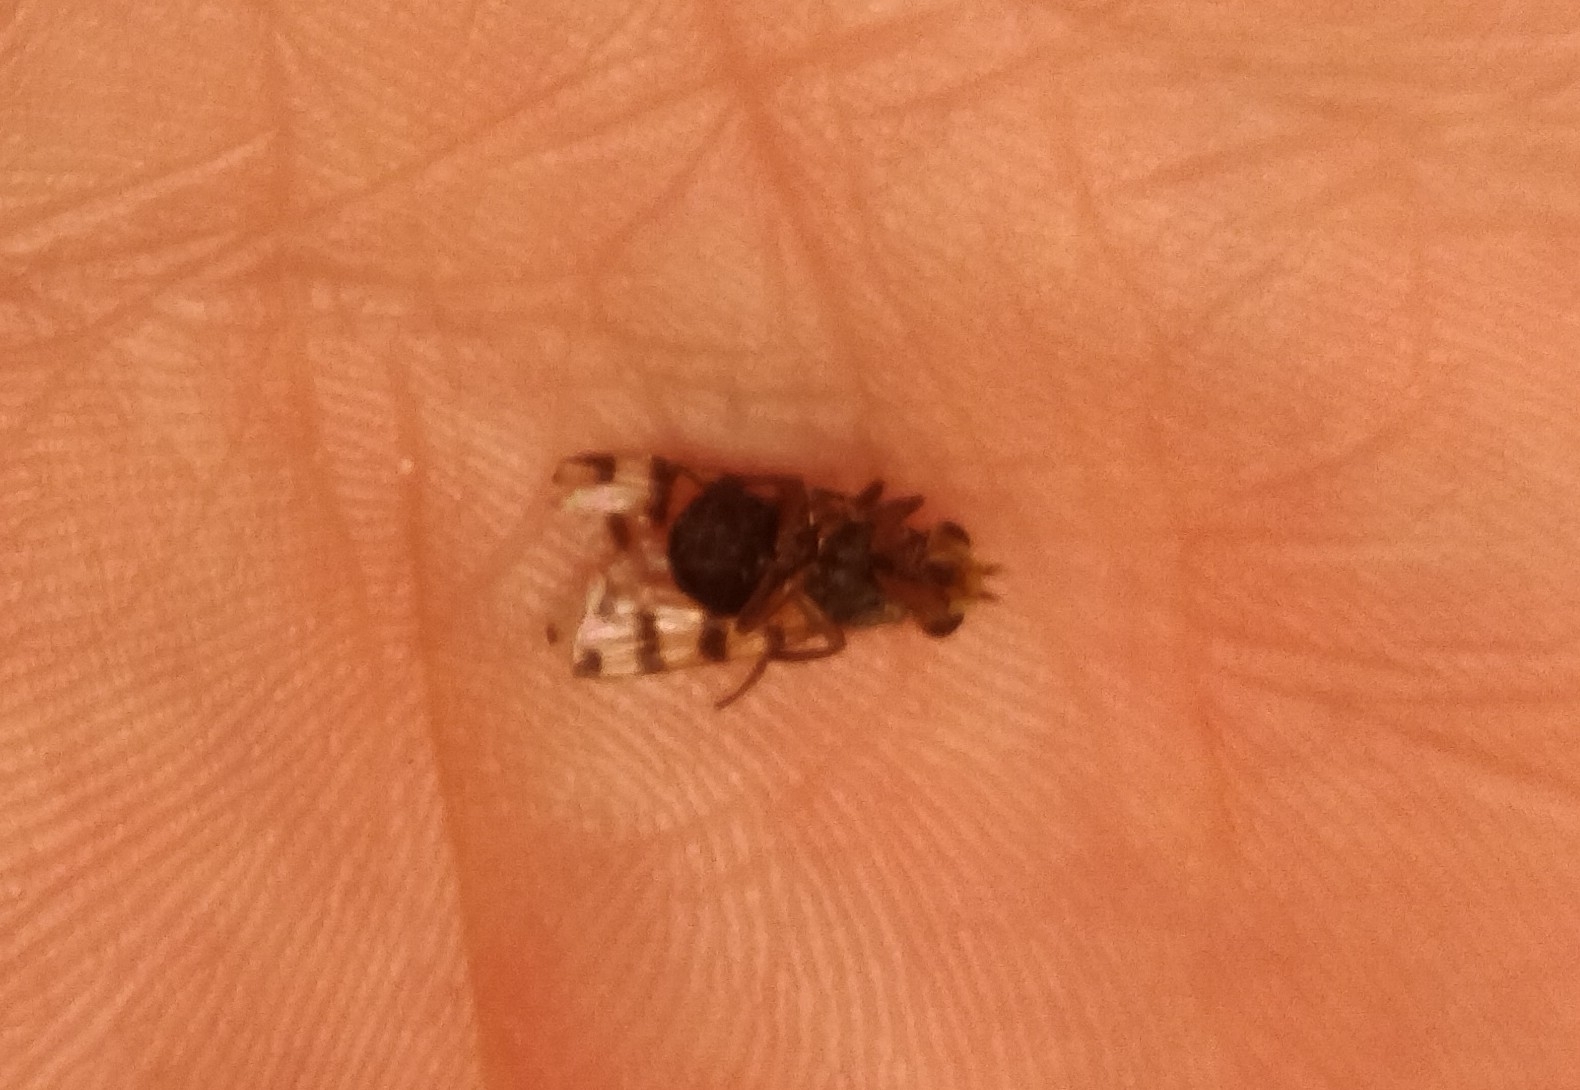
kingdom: Animalia
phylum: Arthropoda
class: Insecta
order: Diptera
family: Ulidiidae
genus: Ceroxys
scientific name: Ceroxys latiusculus
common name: Picture-winged fly
